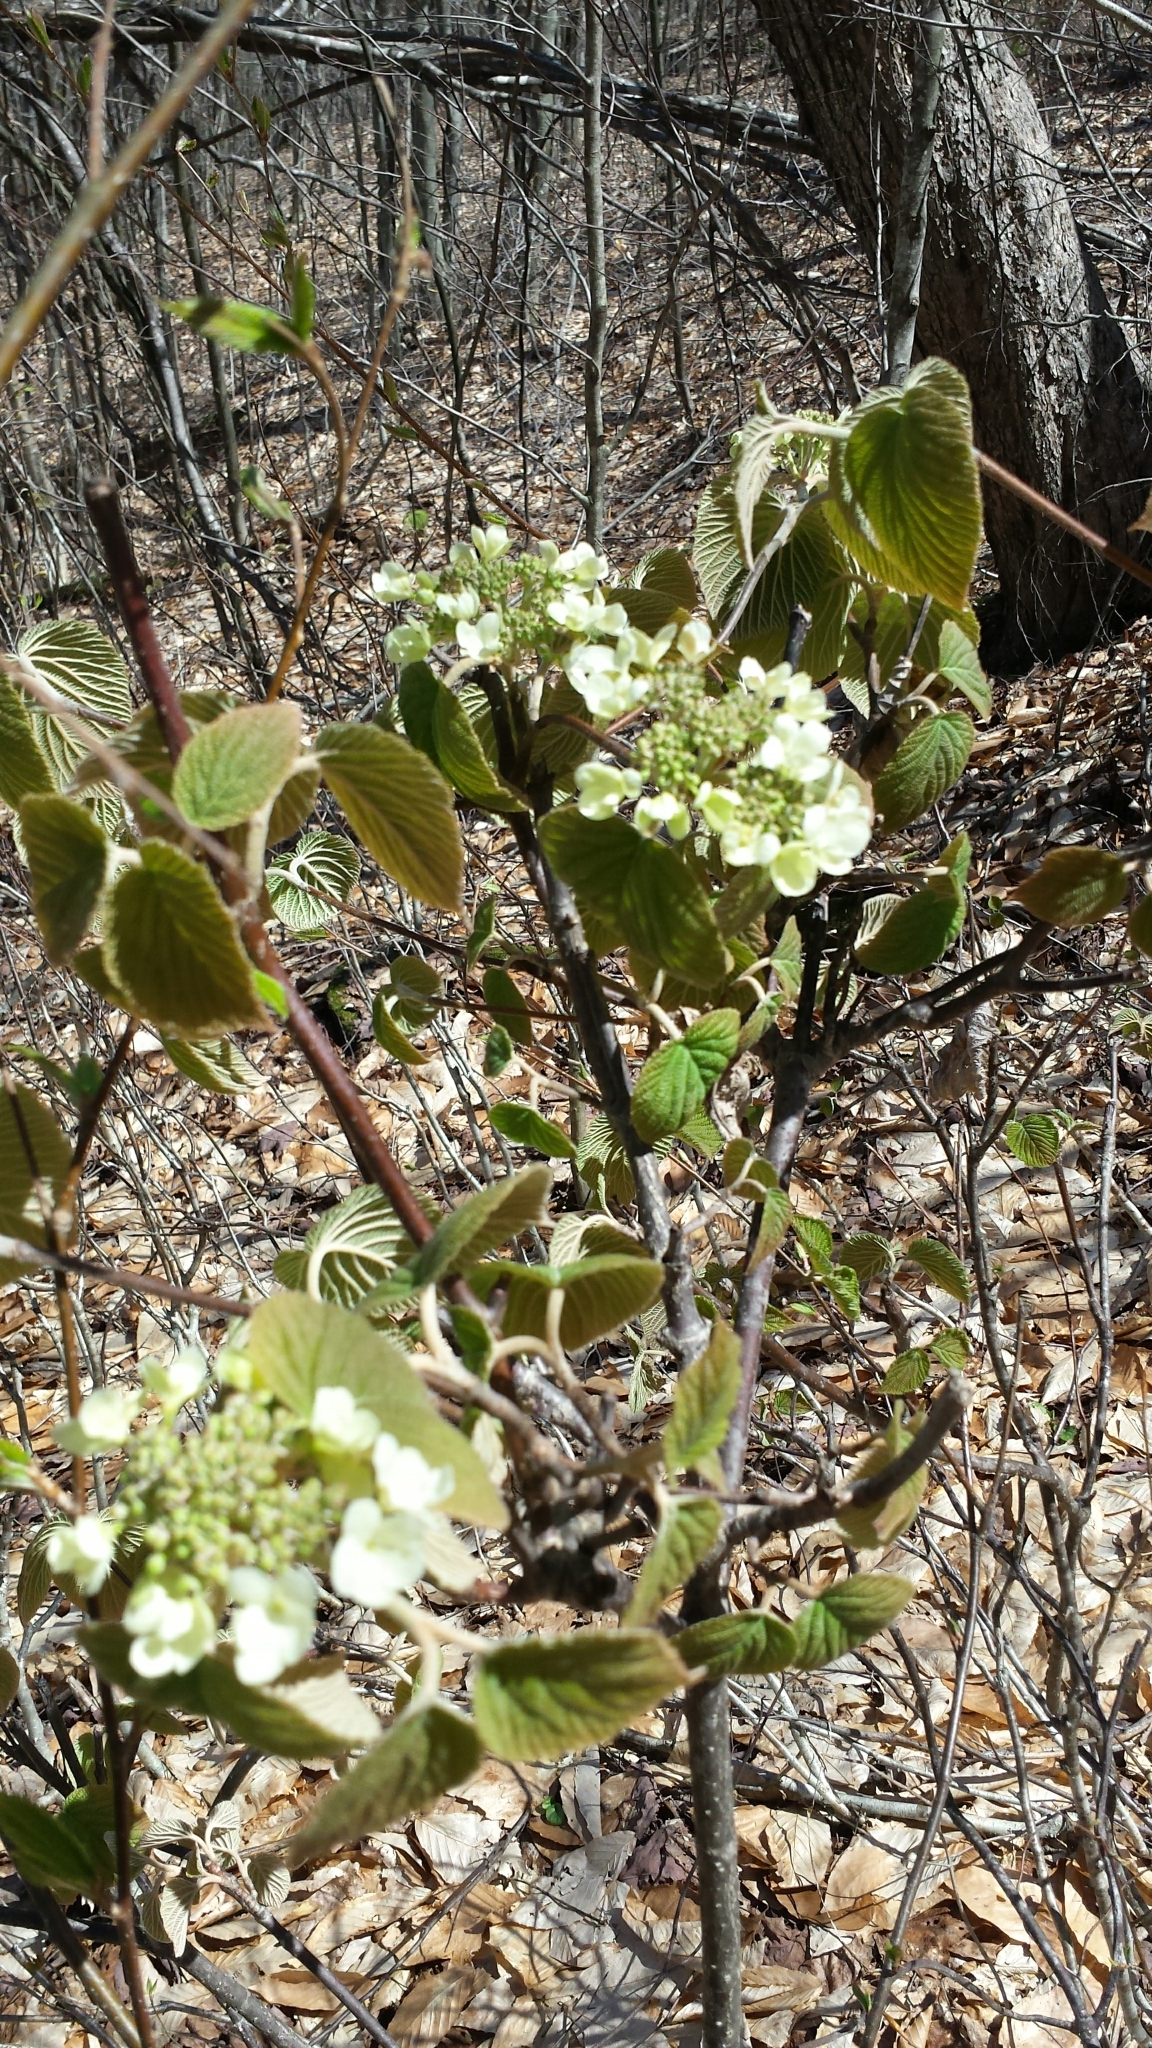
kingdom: Plantae
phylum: Tracheophyta
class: Magnoliopsida
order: Dipsacales
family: Viburnaceae
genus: Viburnum
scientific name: Viburnum lantanoides
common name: Hobblebush
